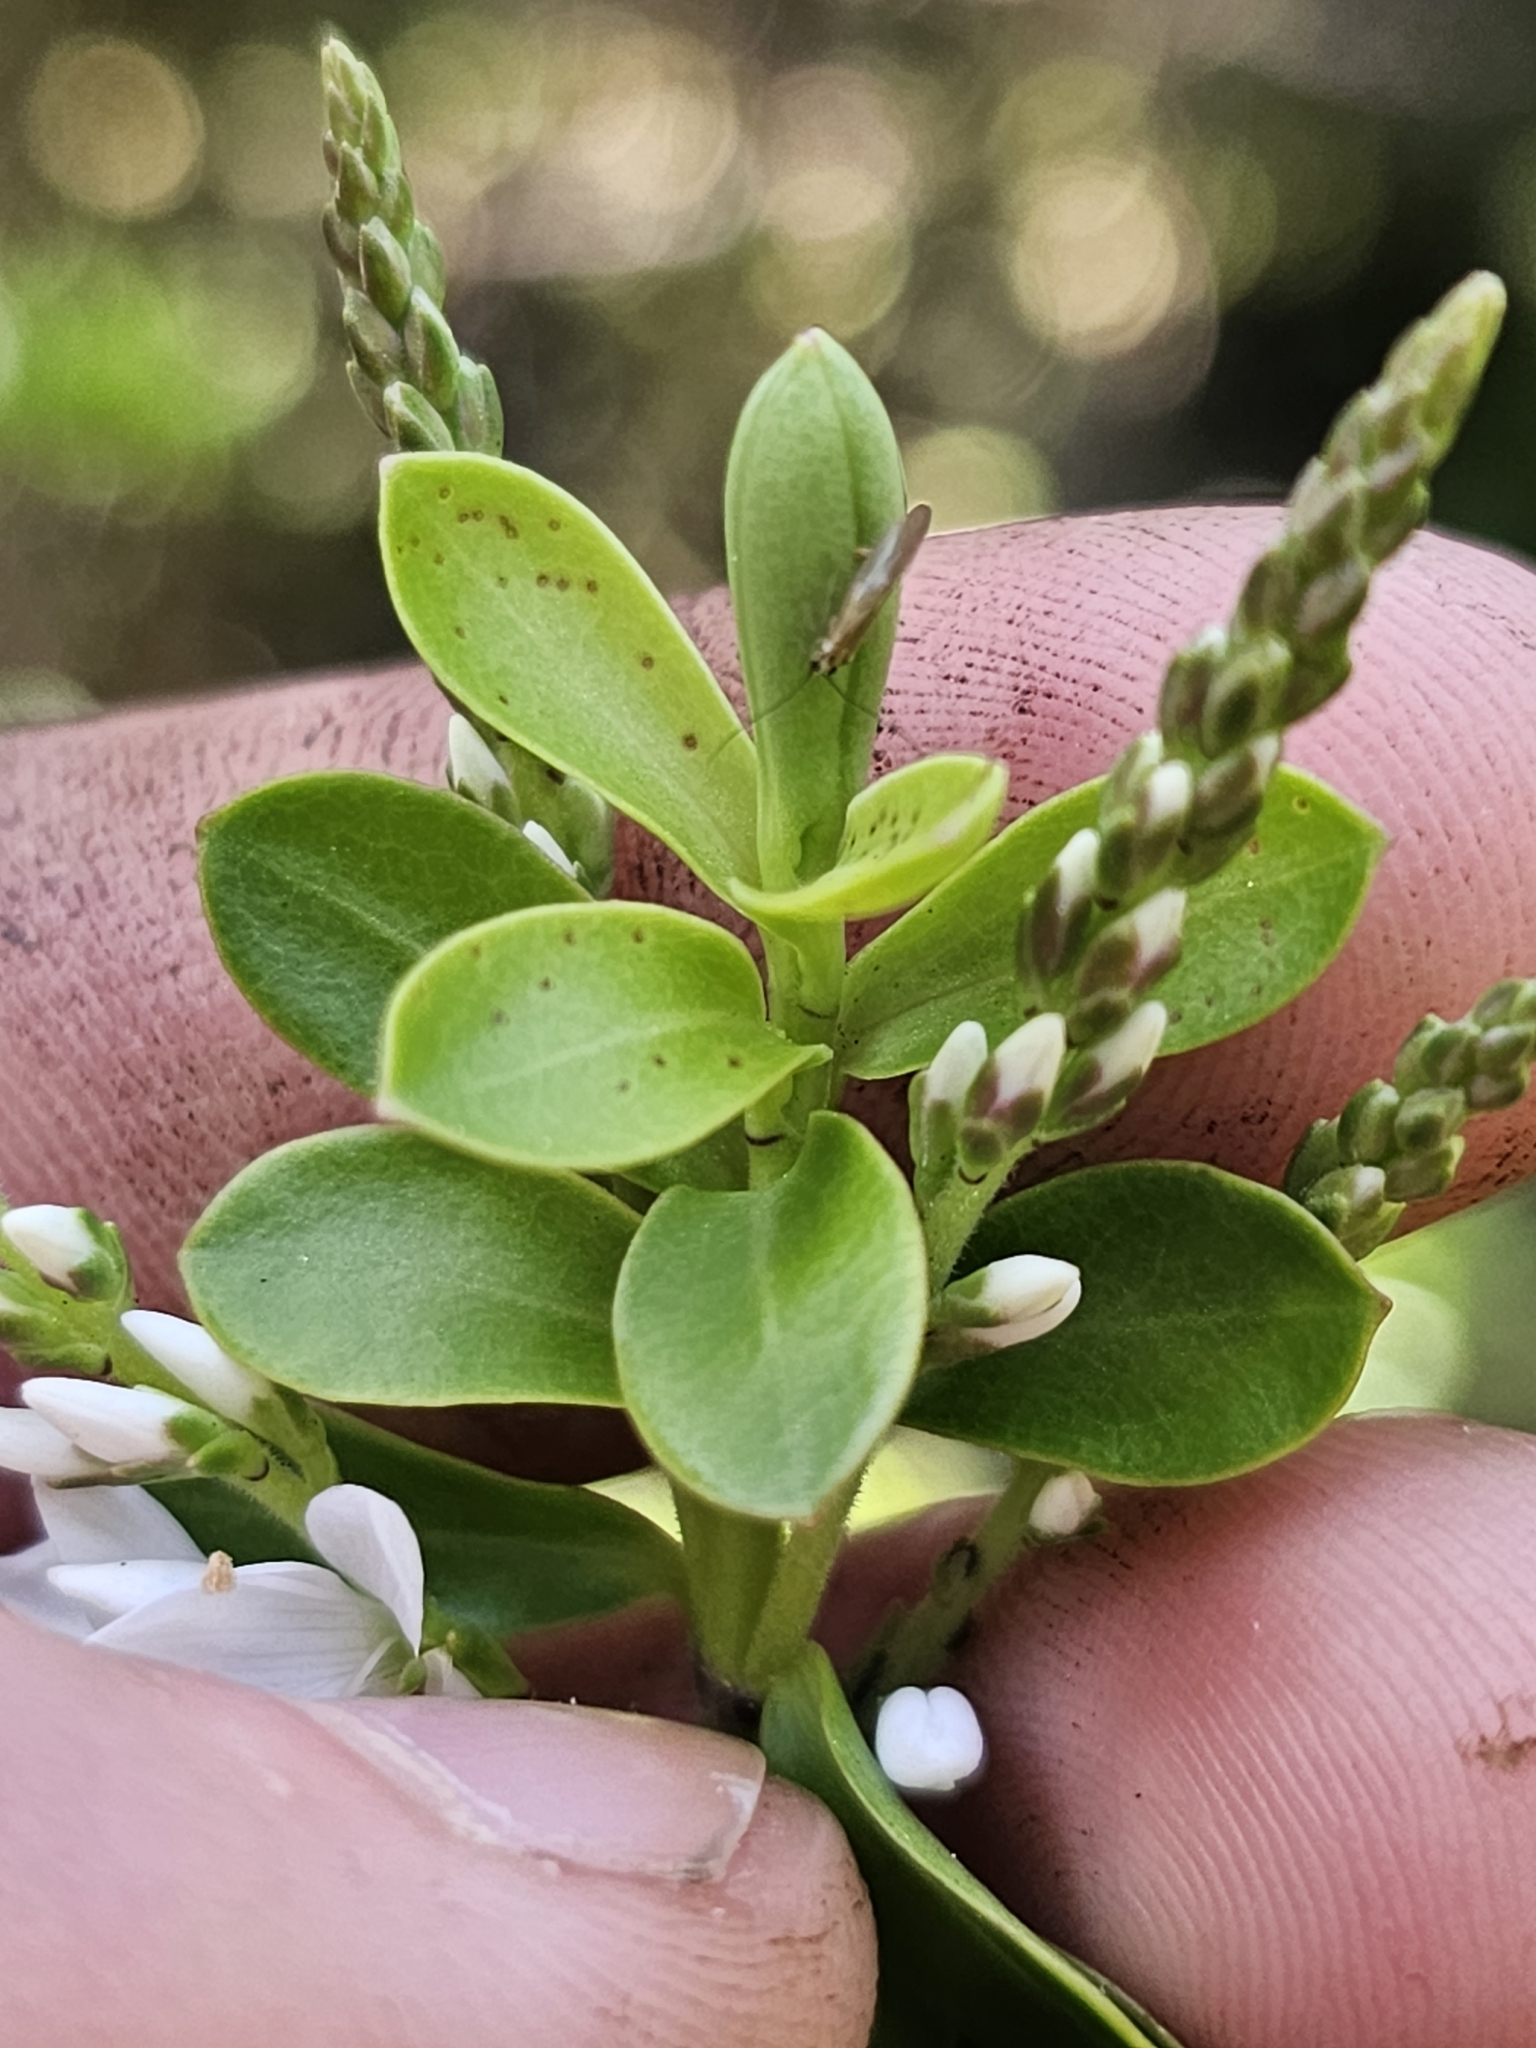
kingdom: Plantae
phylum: Tracheophyta
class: Magnoliopsida
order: Lamiales
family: Plantaginaceae
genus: Veronica
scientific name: Veronica vernicosa
